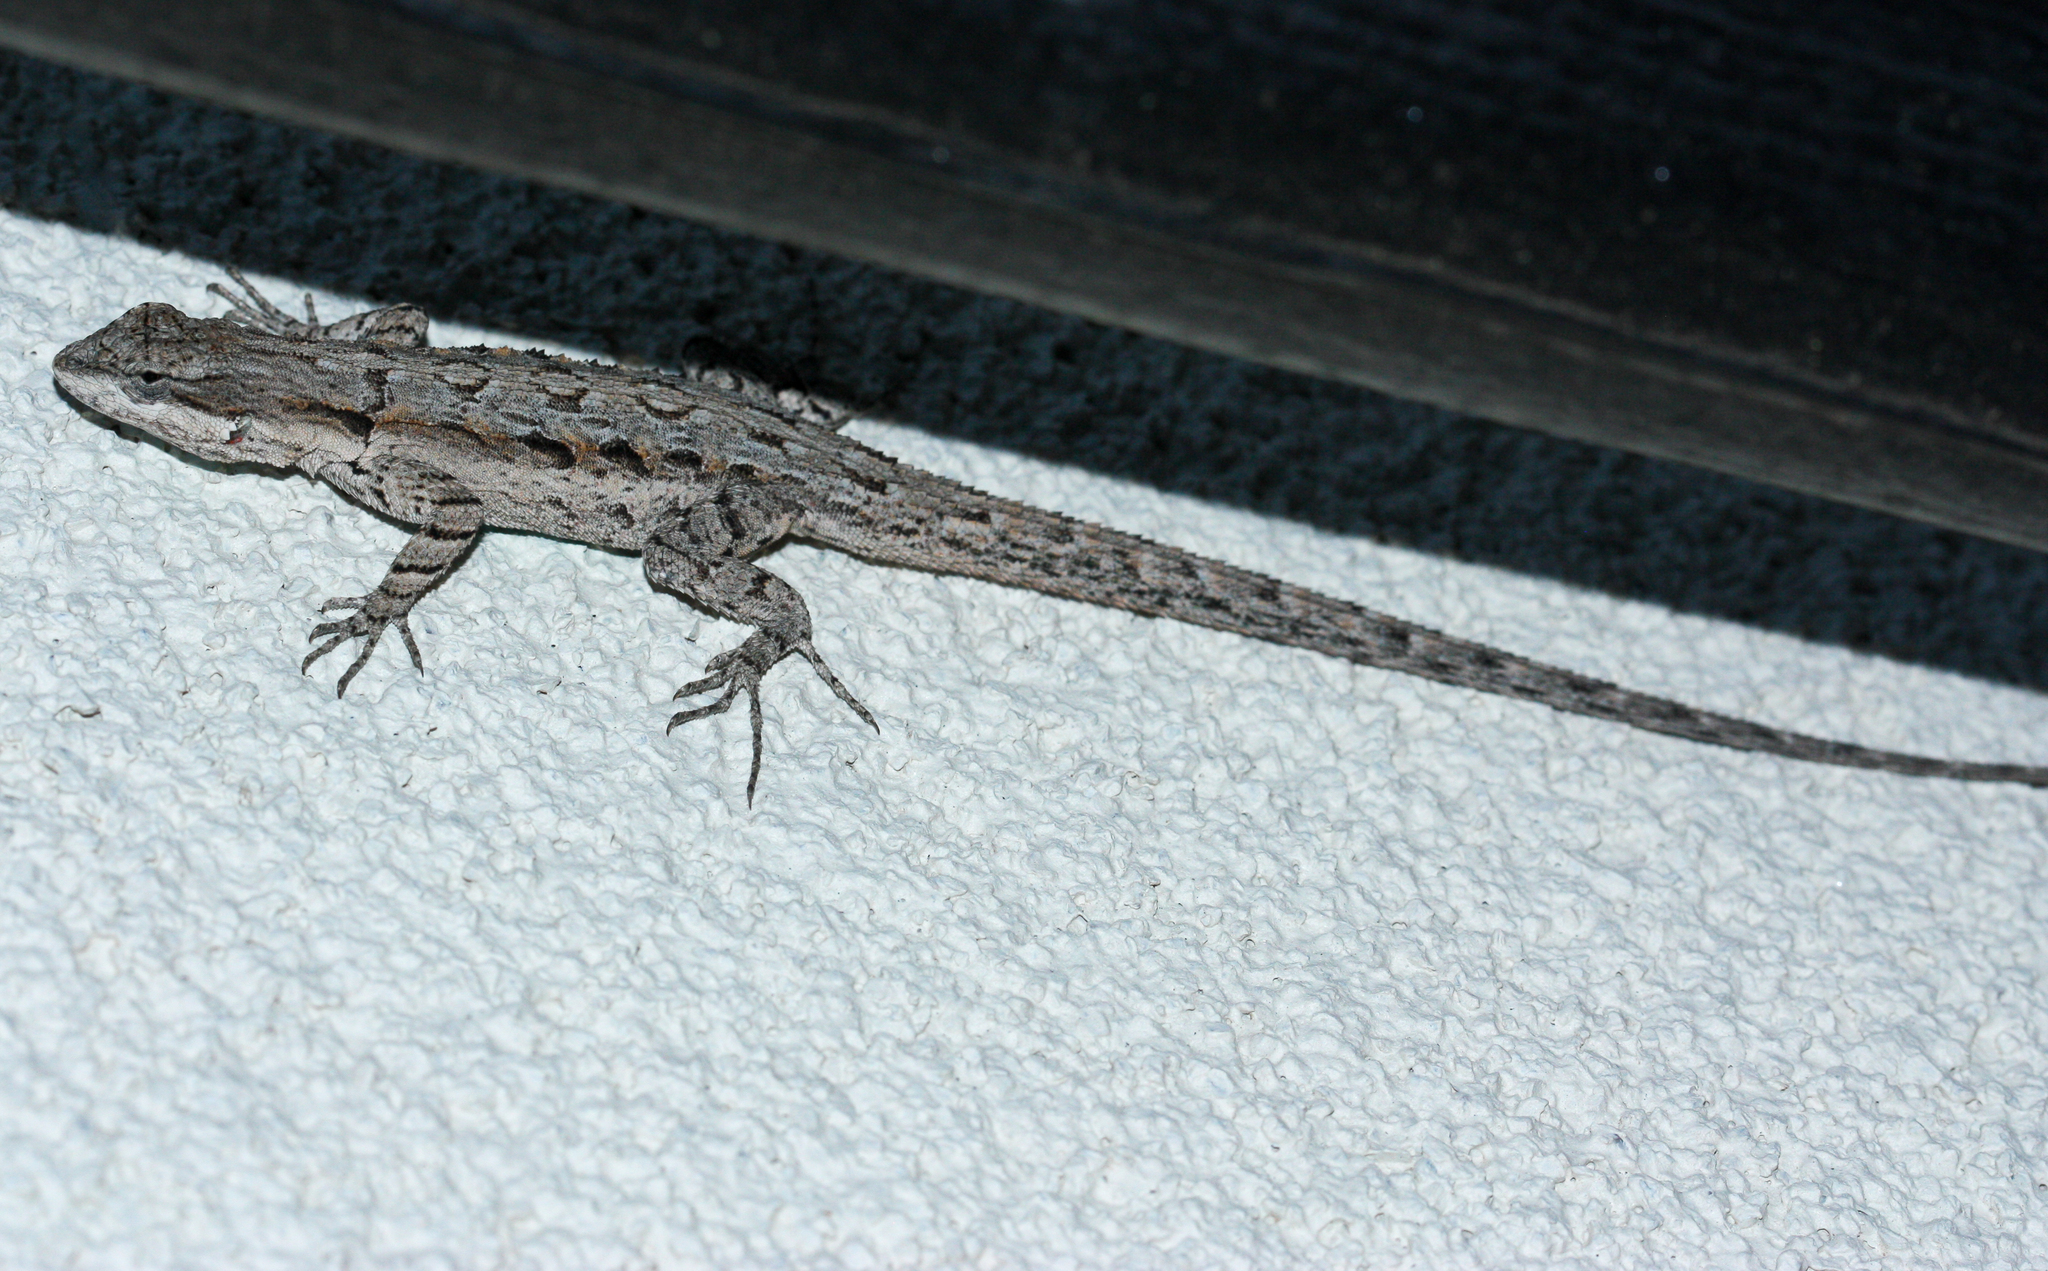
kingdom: Animalia
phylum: Chordata
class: Squamata
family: Phrynosomatidae
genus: Urosaurus
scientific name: Urosaurus ornatus
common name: Ornate tree lizard
